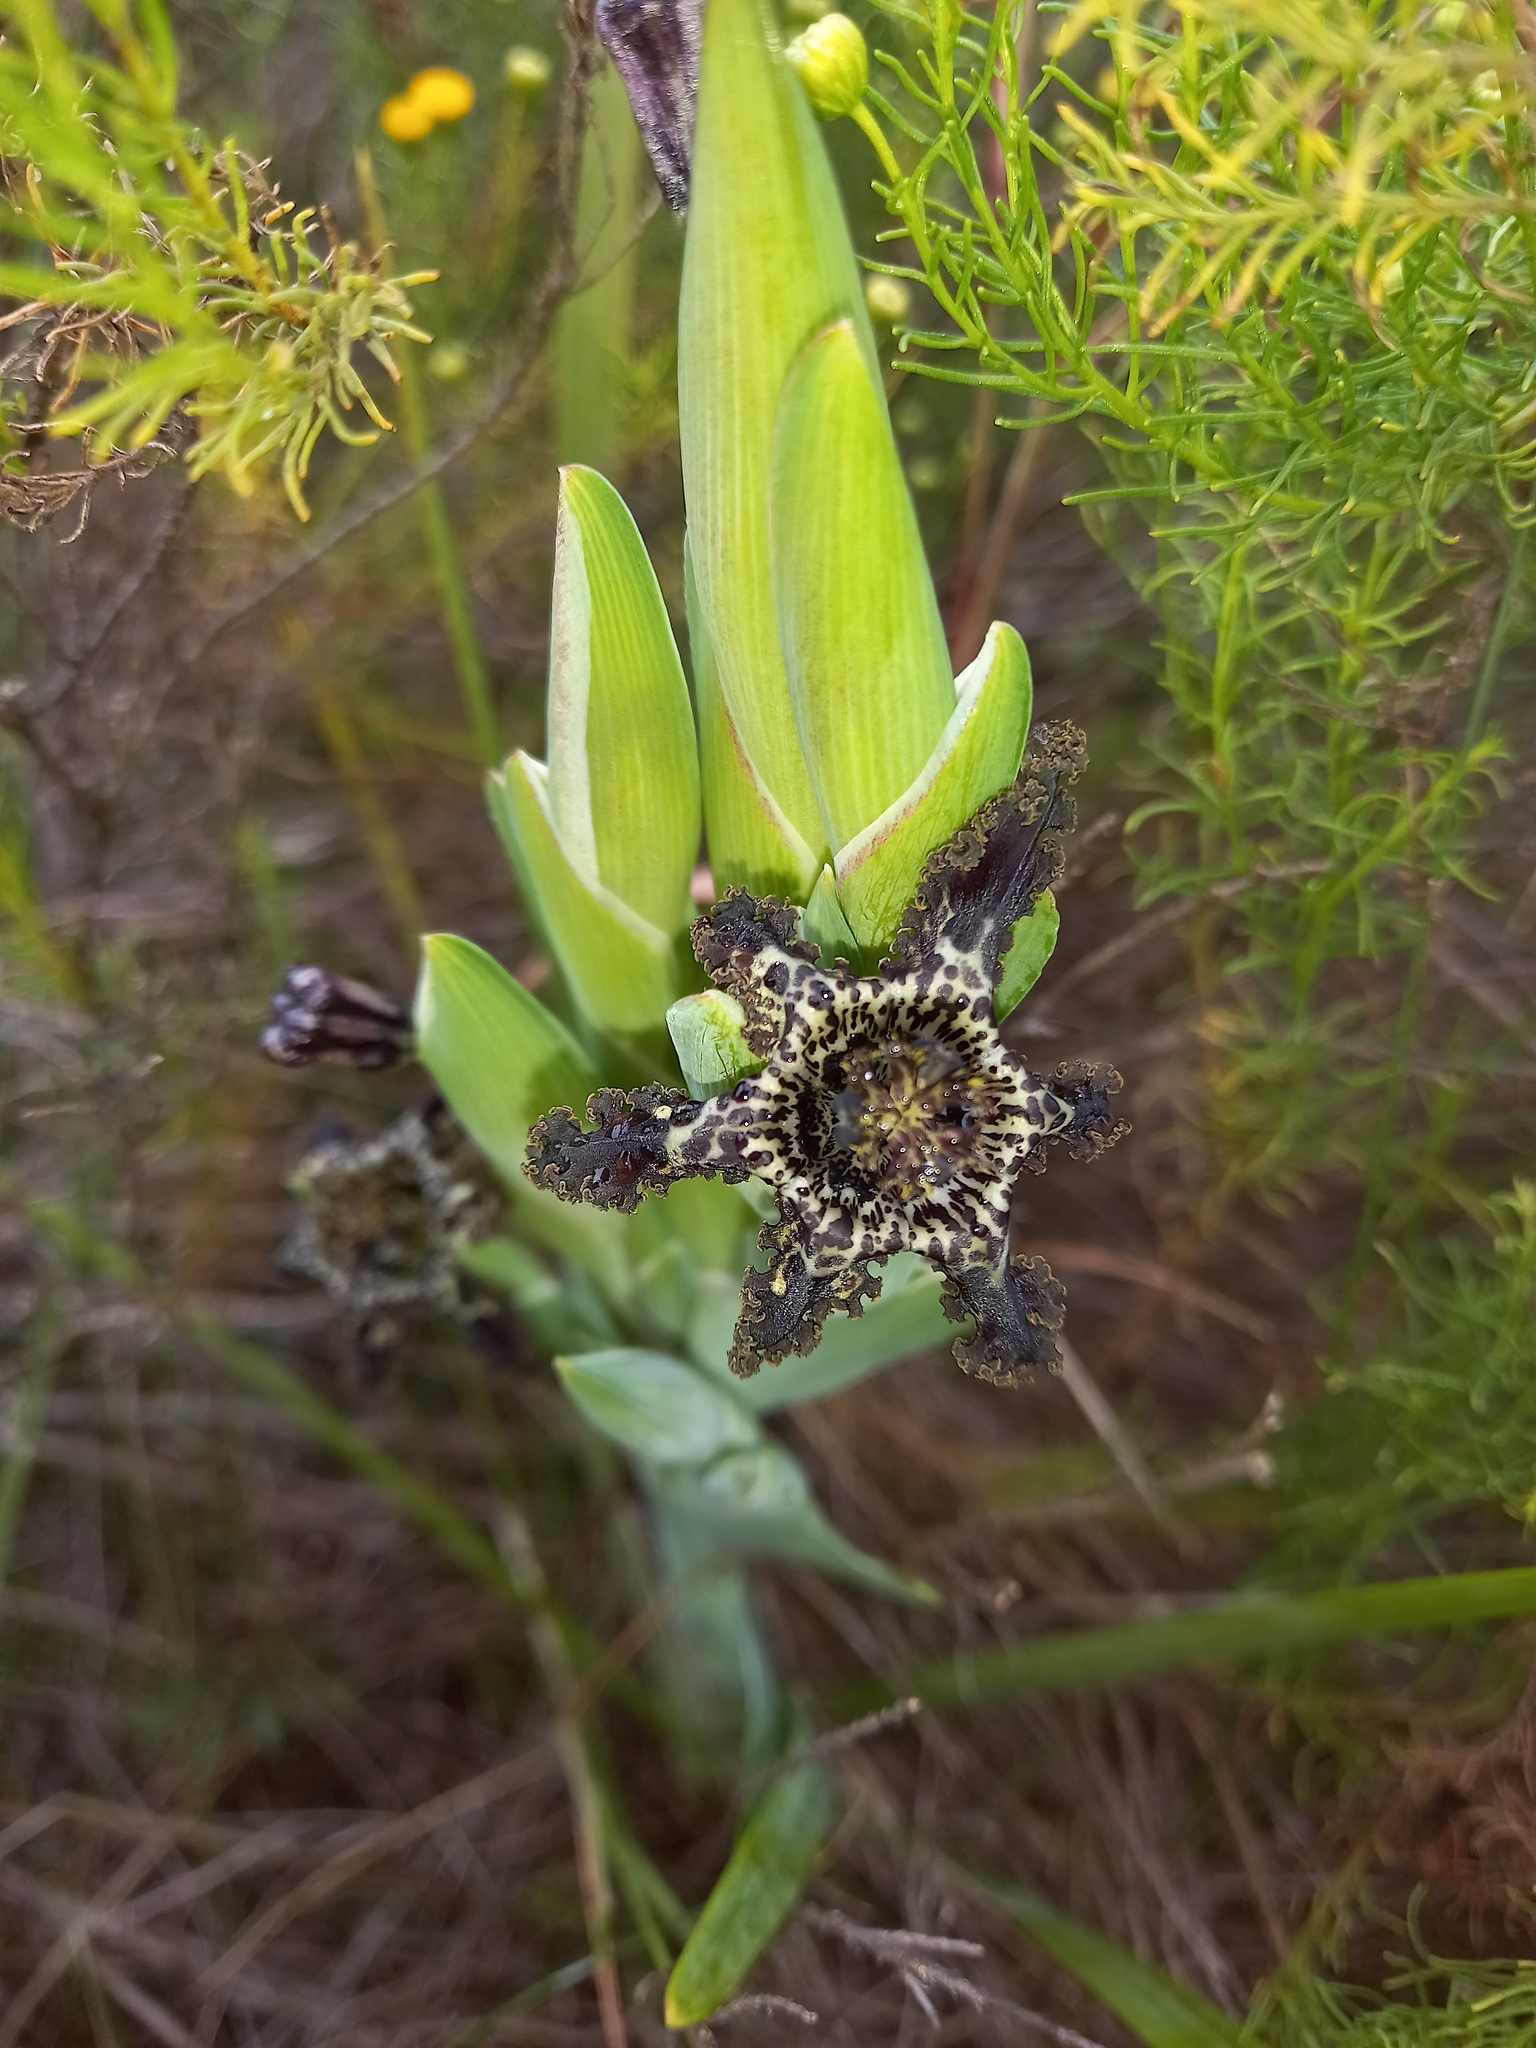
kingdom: Plantae
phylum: Tracheophyta
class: Liliopsida
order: Asparagales
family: Iridaceae
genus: Ferraria
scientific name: Ferraria crispa
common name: Black-flag
